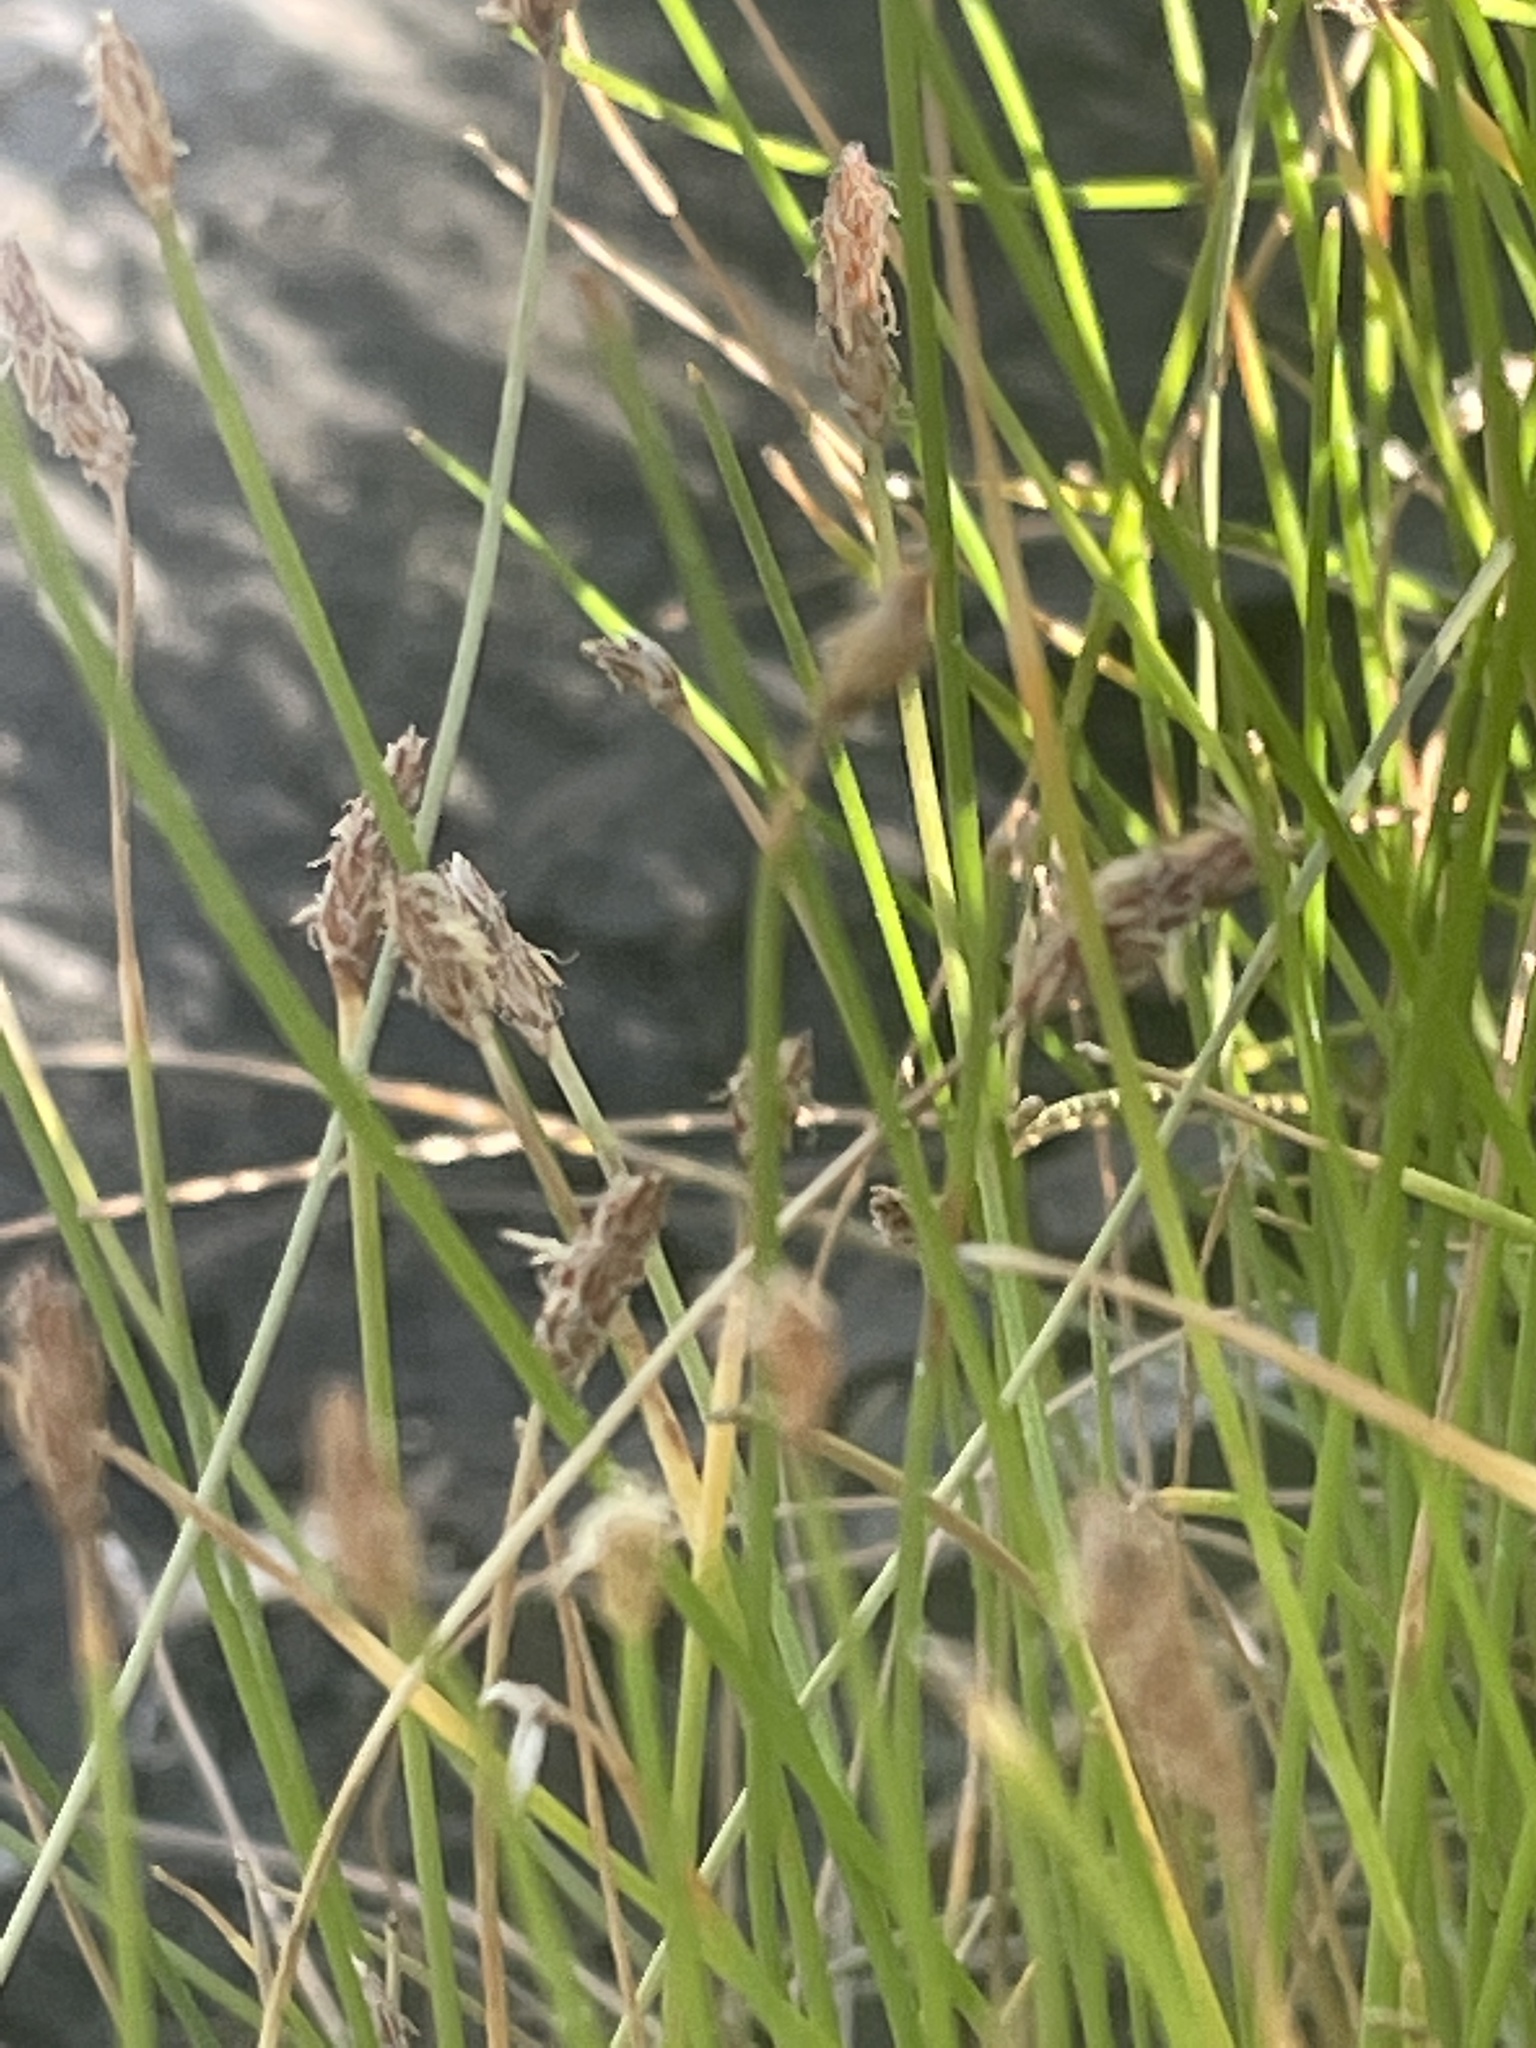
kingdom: Plantae
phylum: Tracheophyta
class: Liliopsida
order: Poales
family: Cyperaceae
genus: Eleocharis
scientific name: Eleocharis palustris
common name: Common spike-rush
